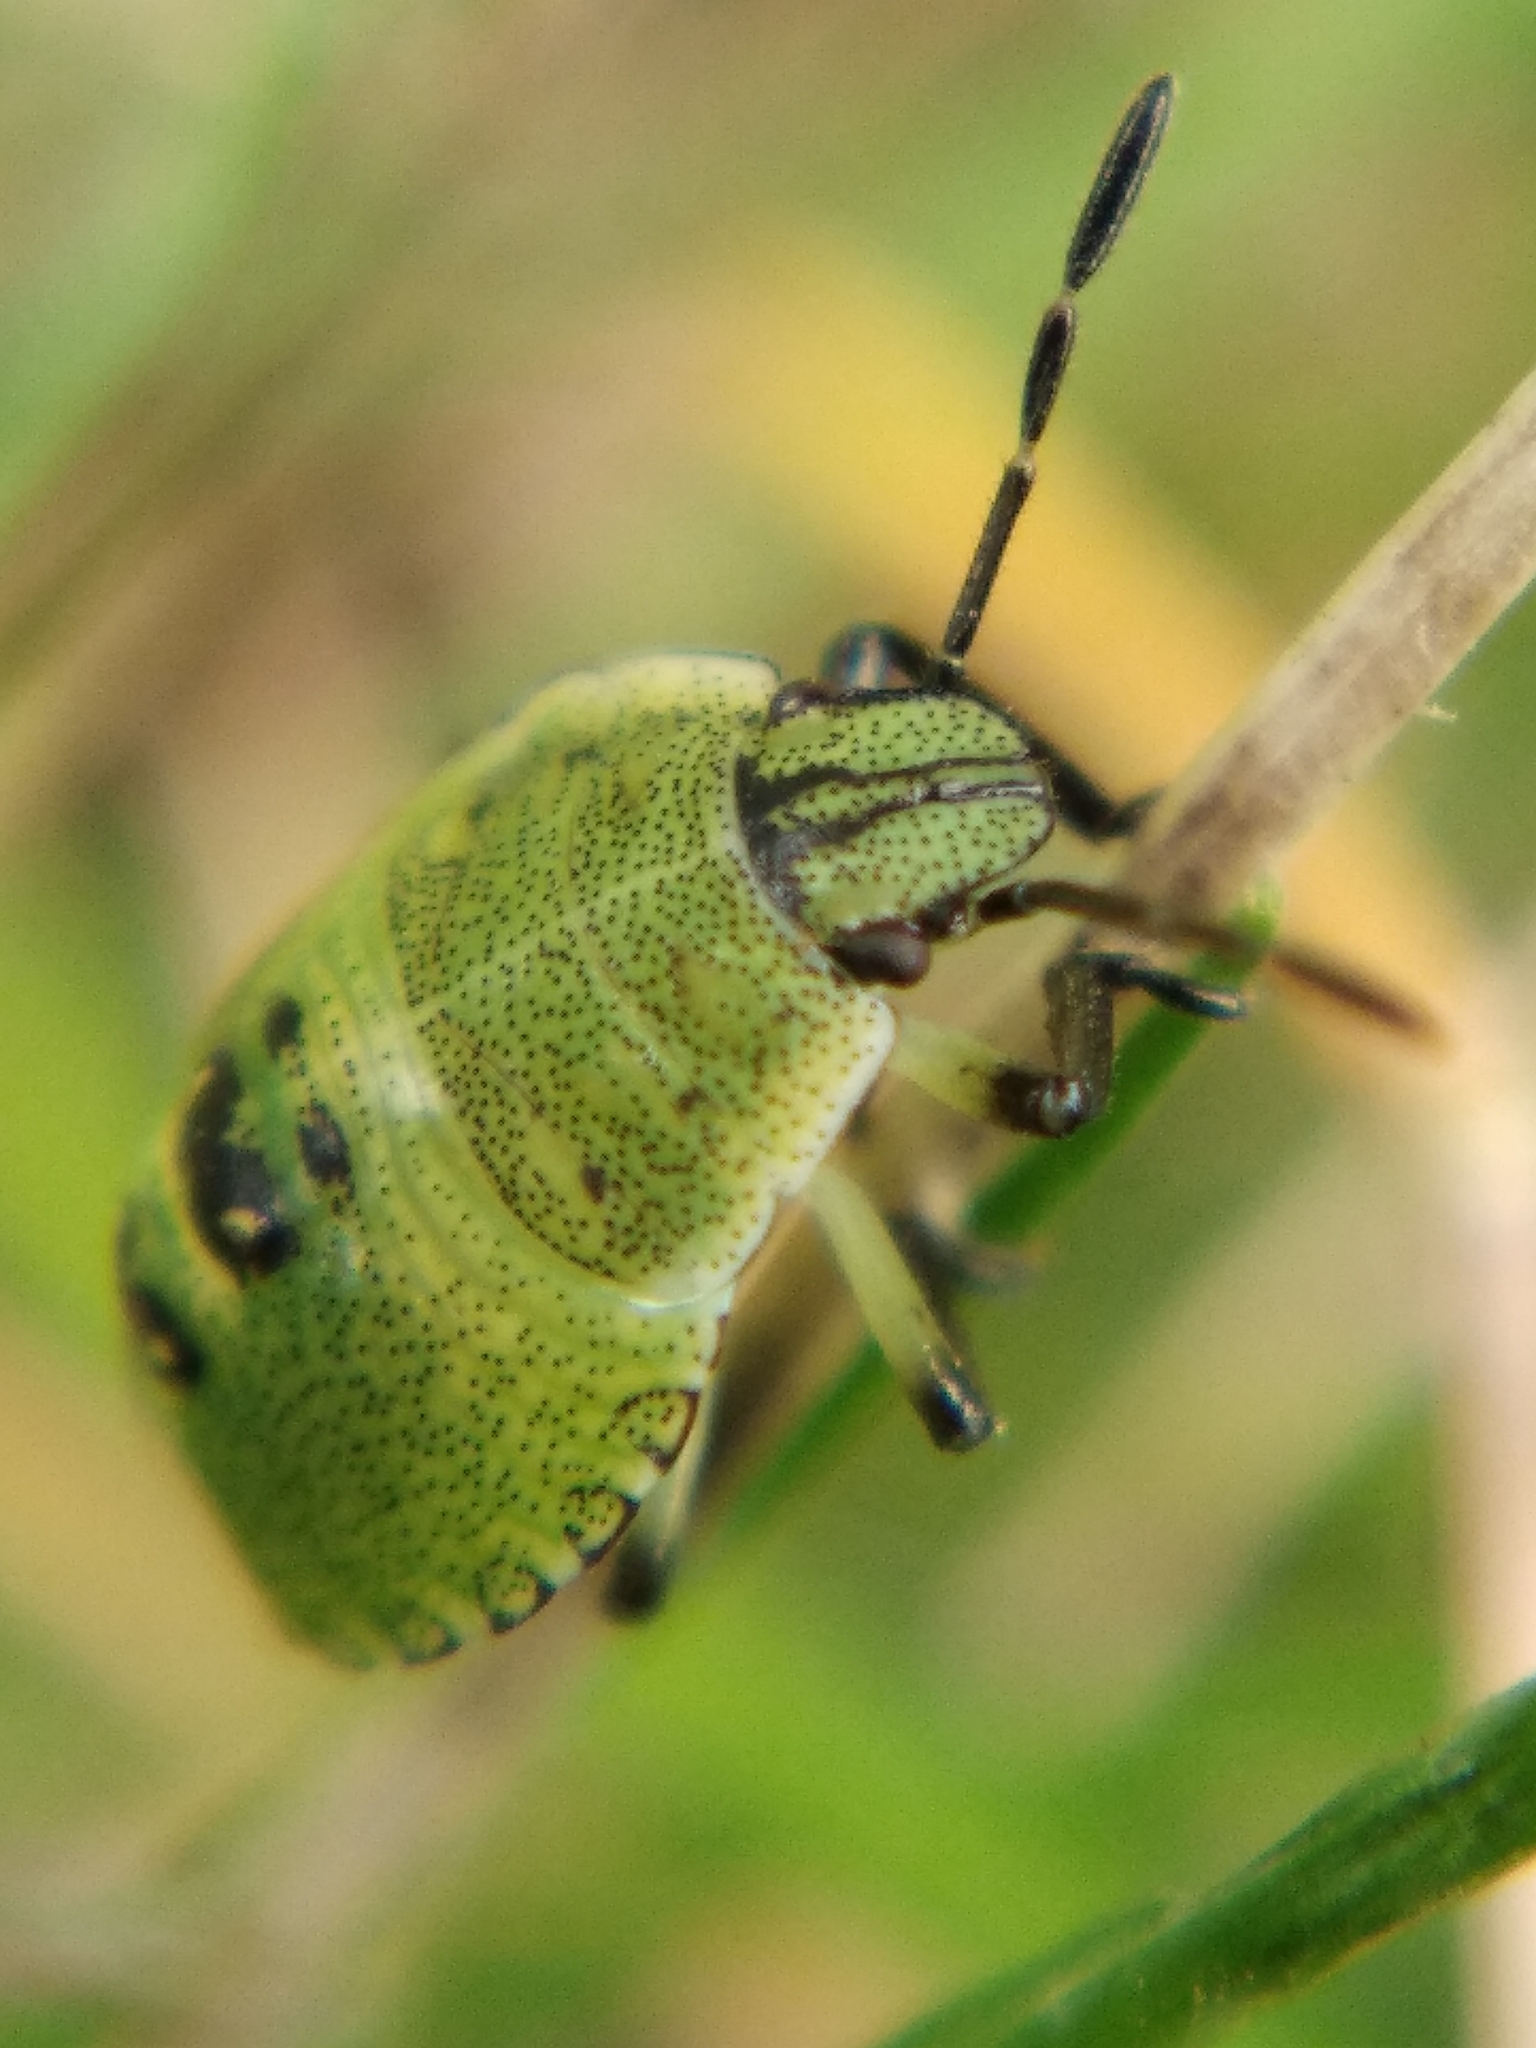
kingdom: Animalia
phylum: Arthropoda
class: Insecta
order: Hemiptera
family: Pentatomidae
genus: Palomena
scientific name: Palomena prasina
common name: Green shieldbug
